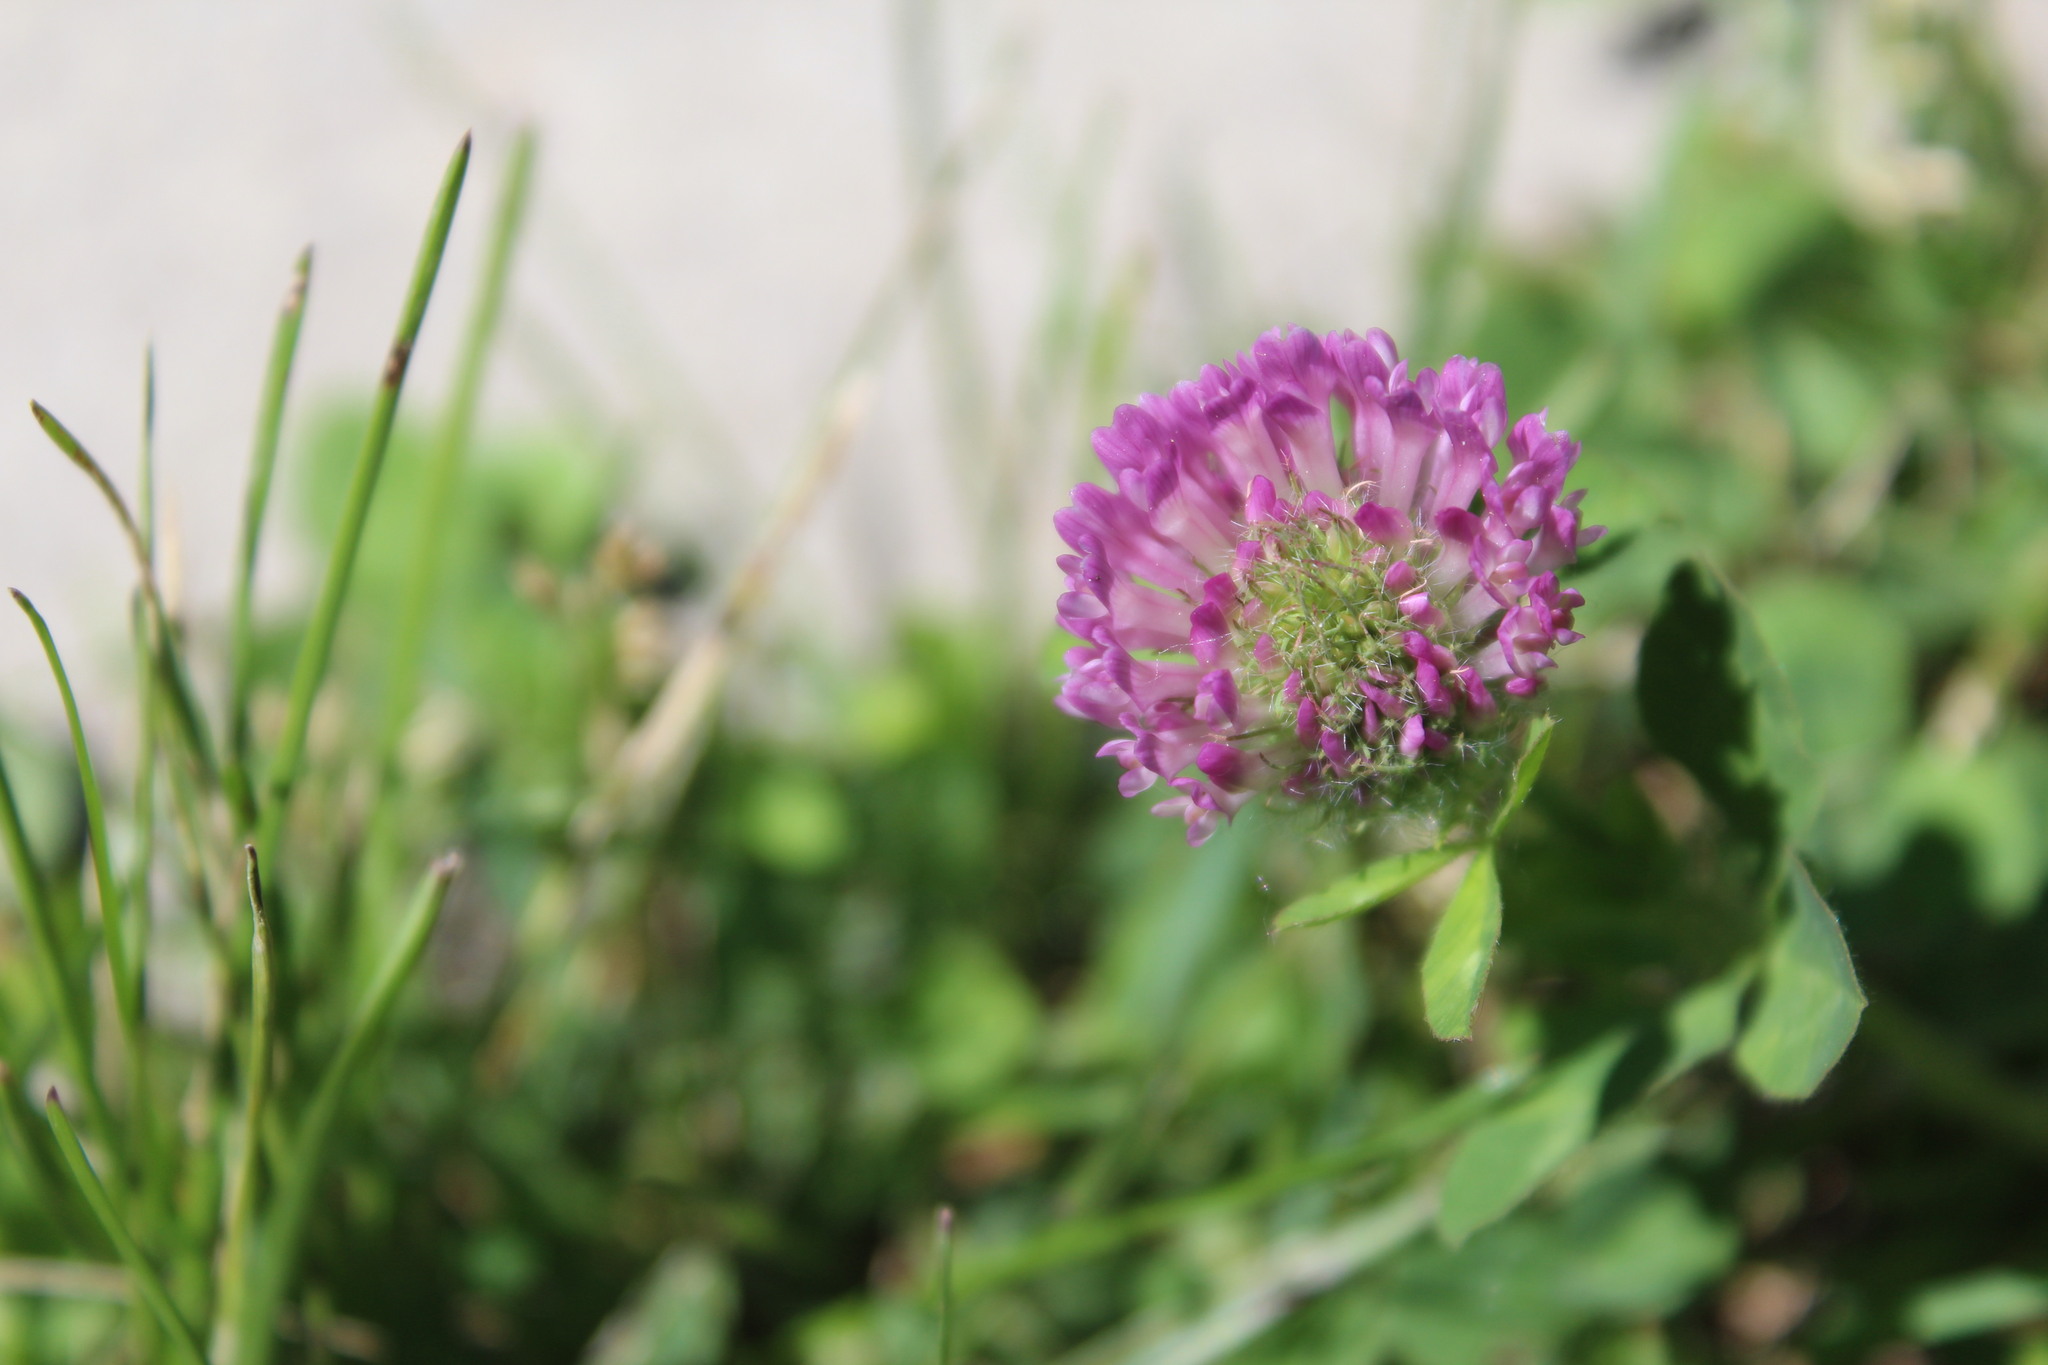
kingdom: Plantae
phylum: Tracheophyta
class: Magnoliopsida
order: Fabales
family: Fabaceae
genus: Trifolium
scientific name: Trifolium pratense
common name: Red clover
